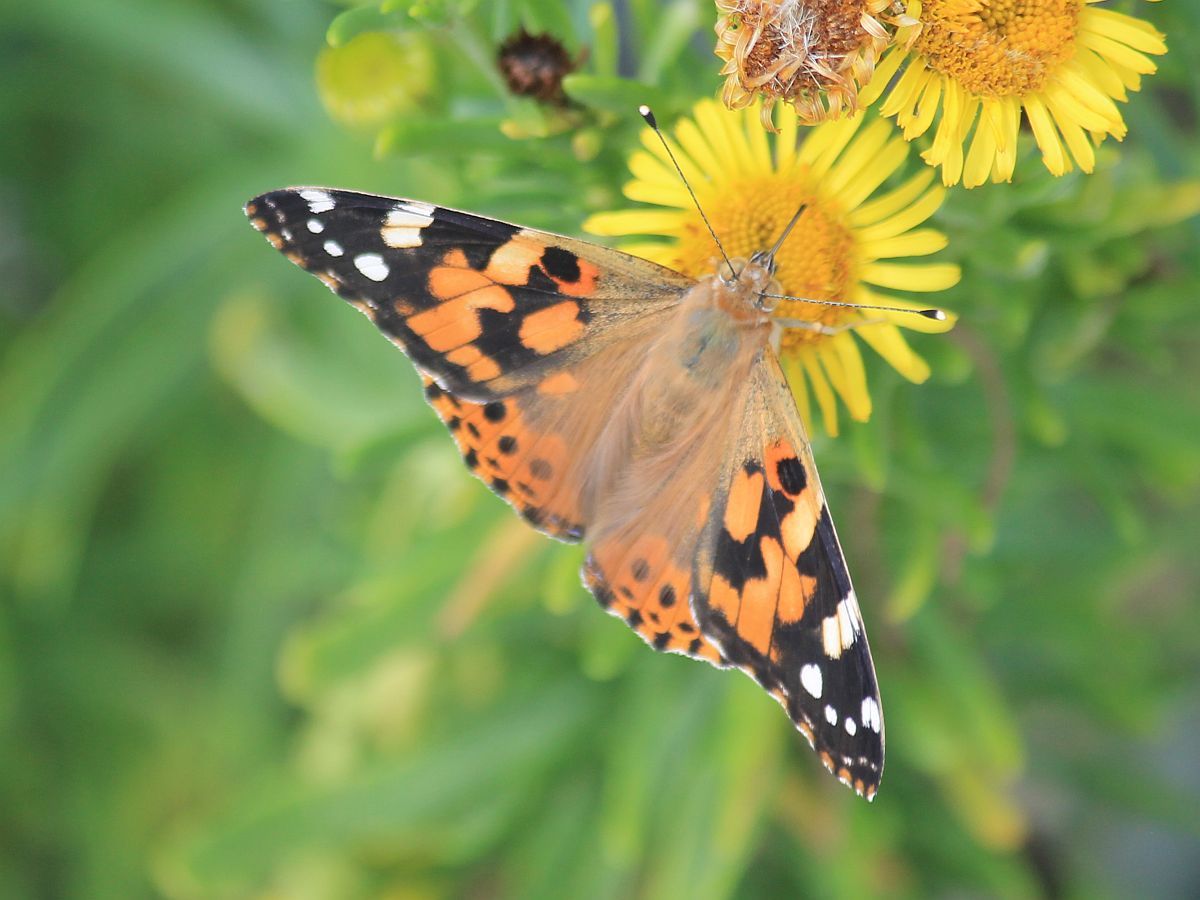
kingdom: Animalia
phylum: Arthropoda
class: Insecta
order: Lepidoptera
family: Nymphalidae
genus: Vanessa
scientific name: Vanessa cardui
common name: Painted lady
